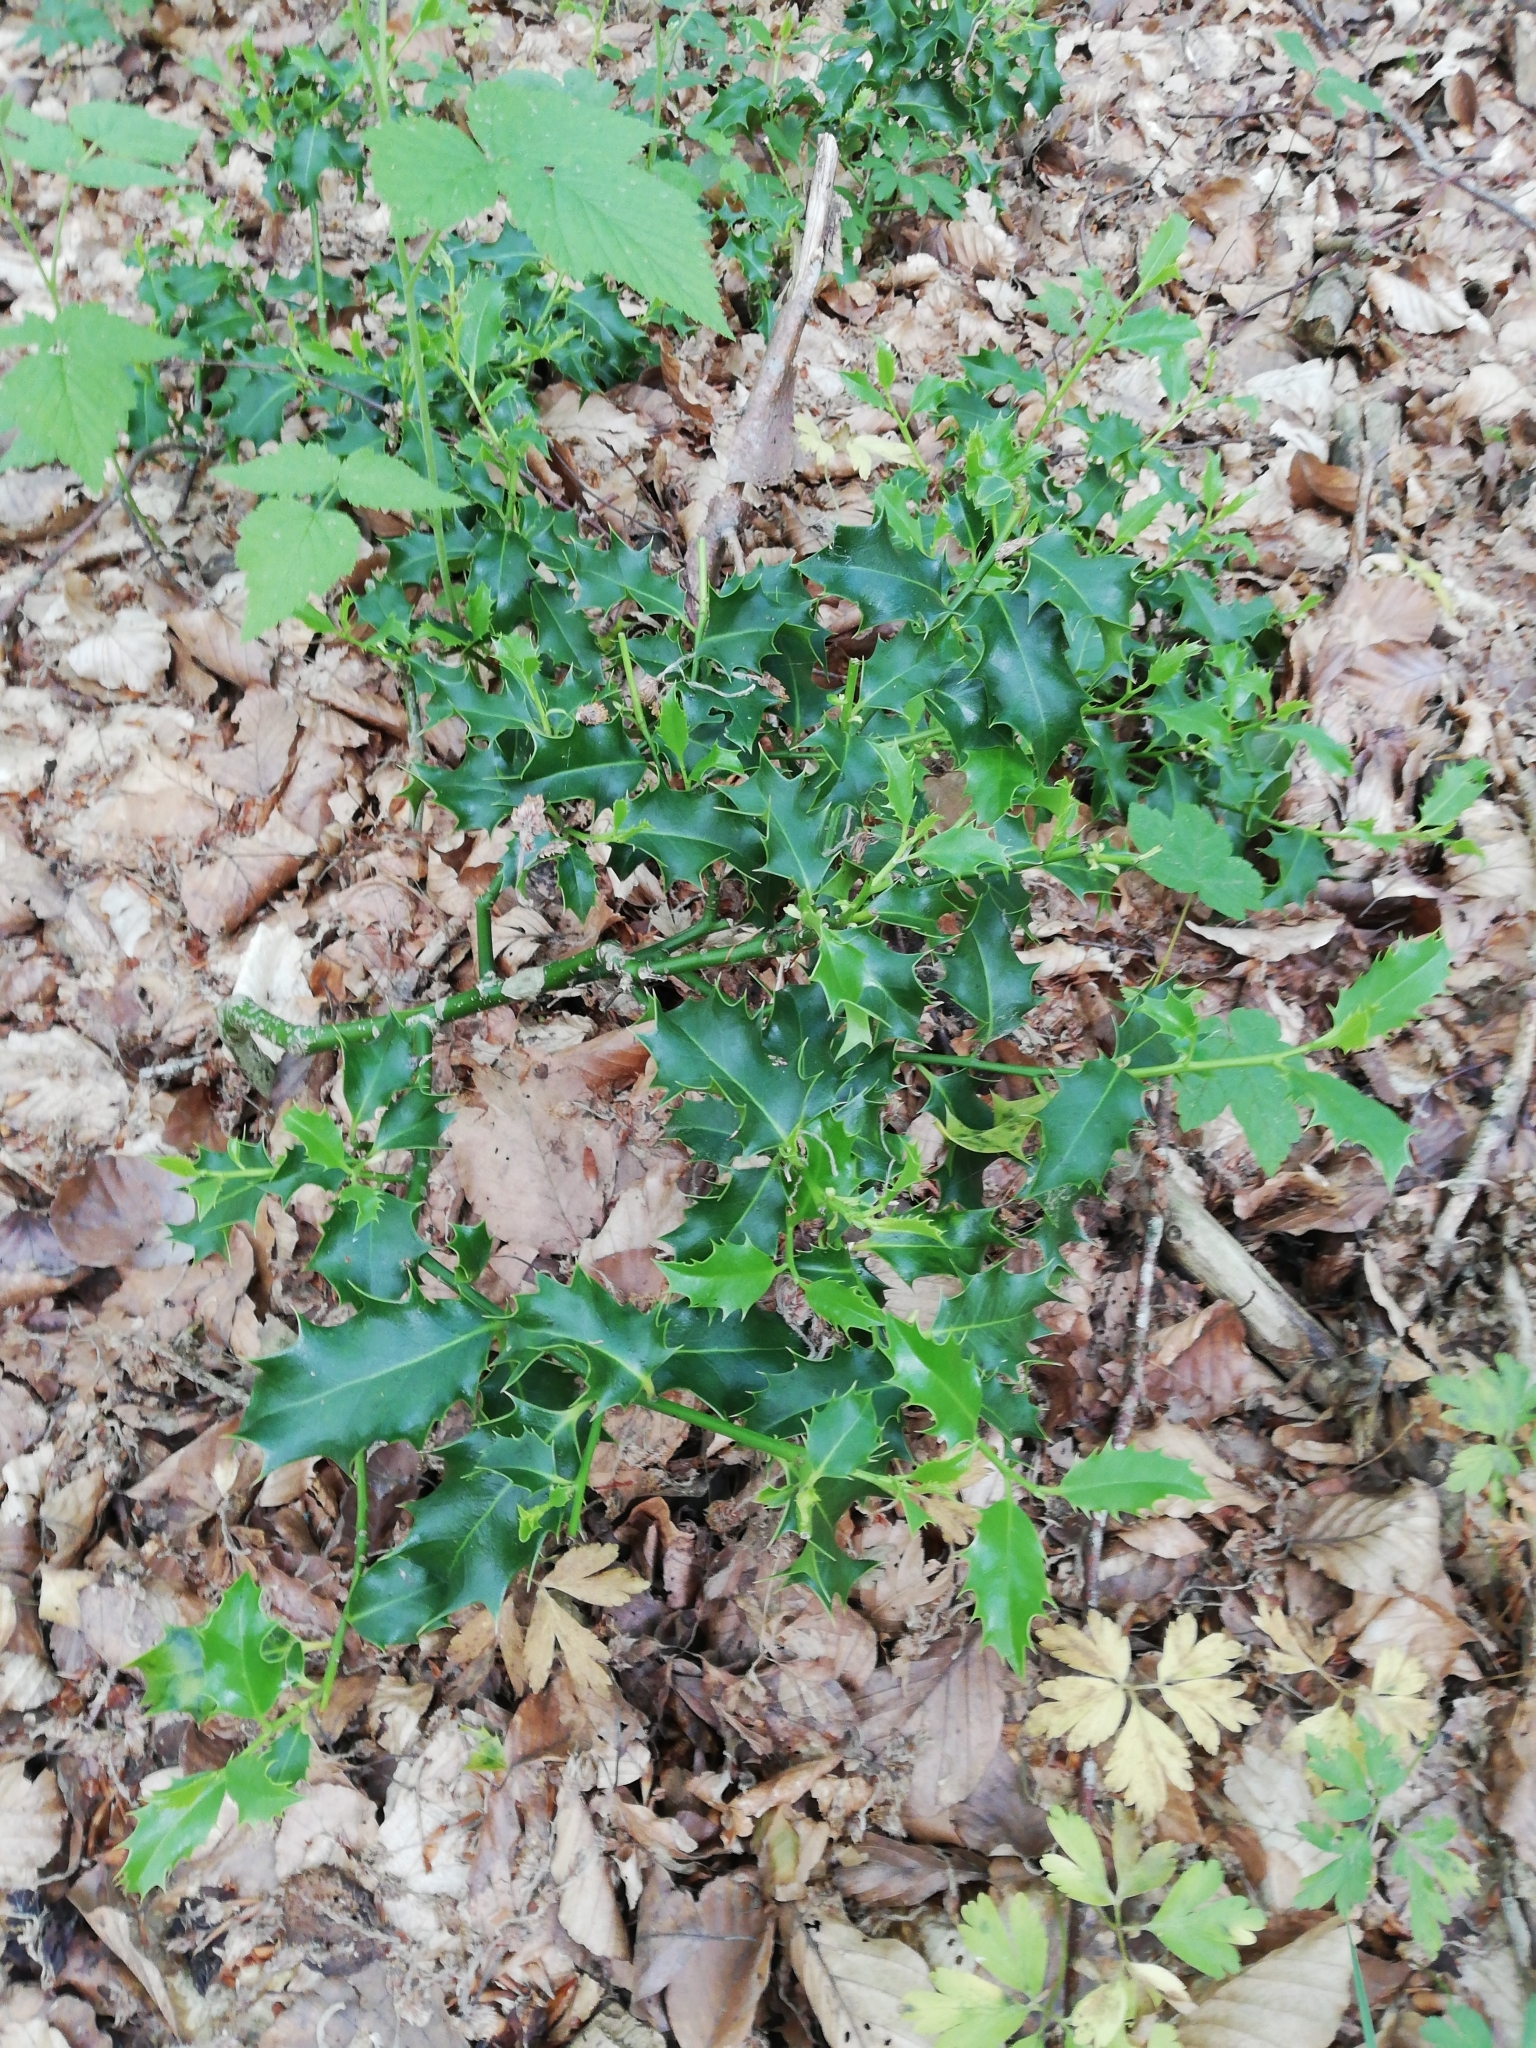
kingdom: Plantae
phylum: Tracheophyta
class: Magnoliopsida
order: Aquifoliales
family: Aquifoliaceae
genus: Ilex
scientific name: Ilex aquifolium
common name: English holly
